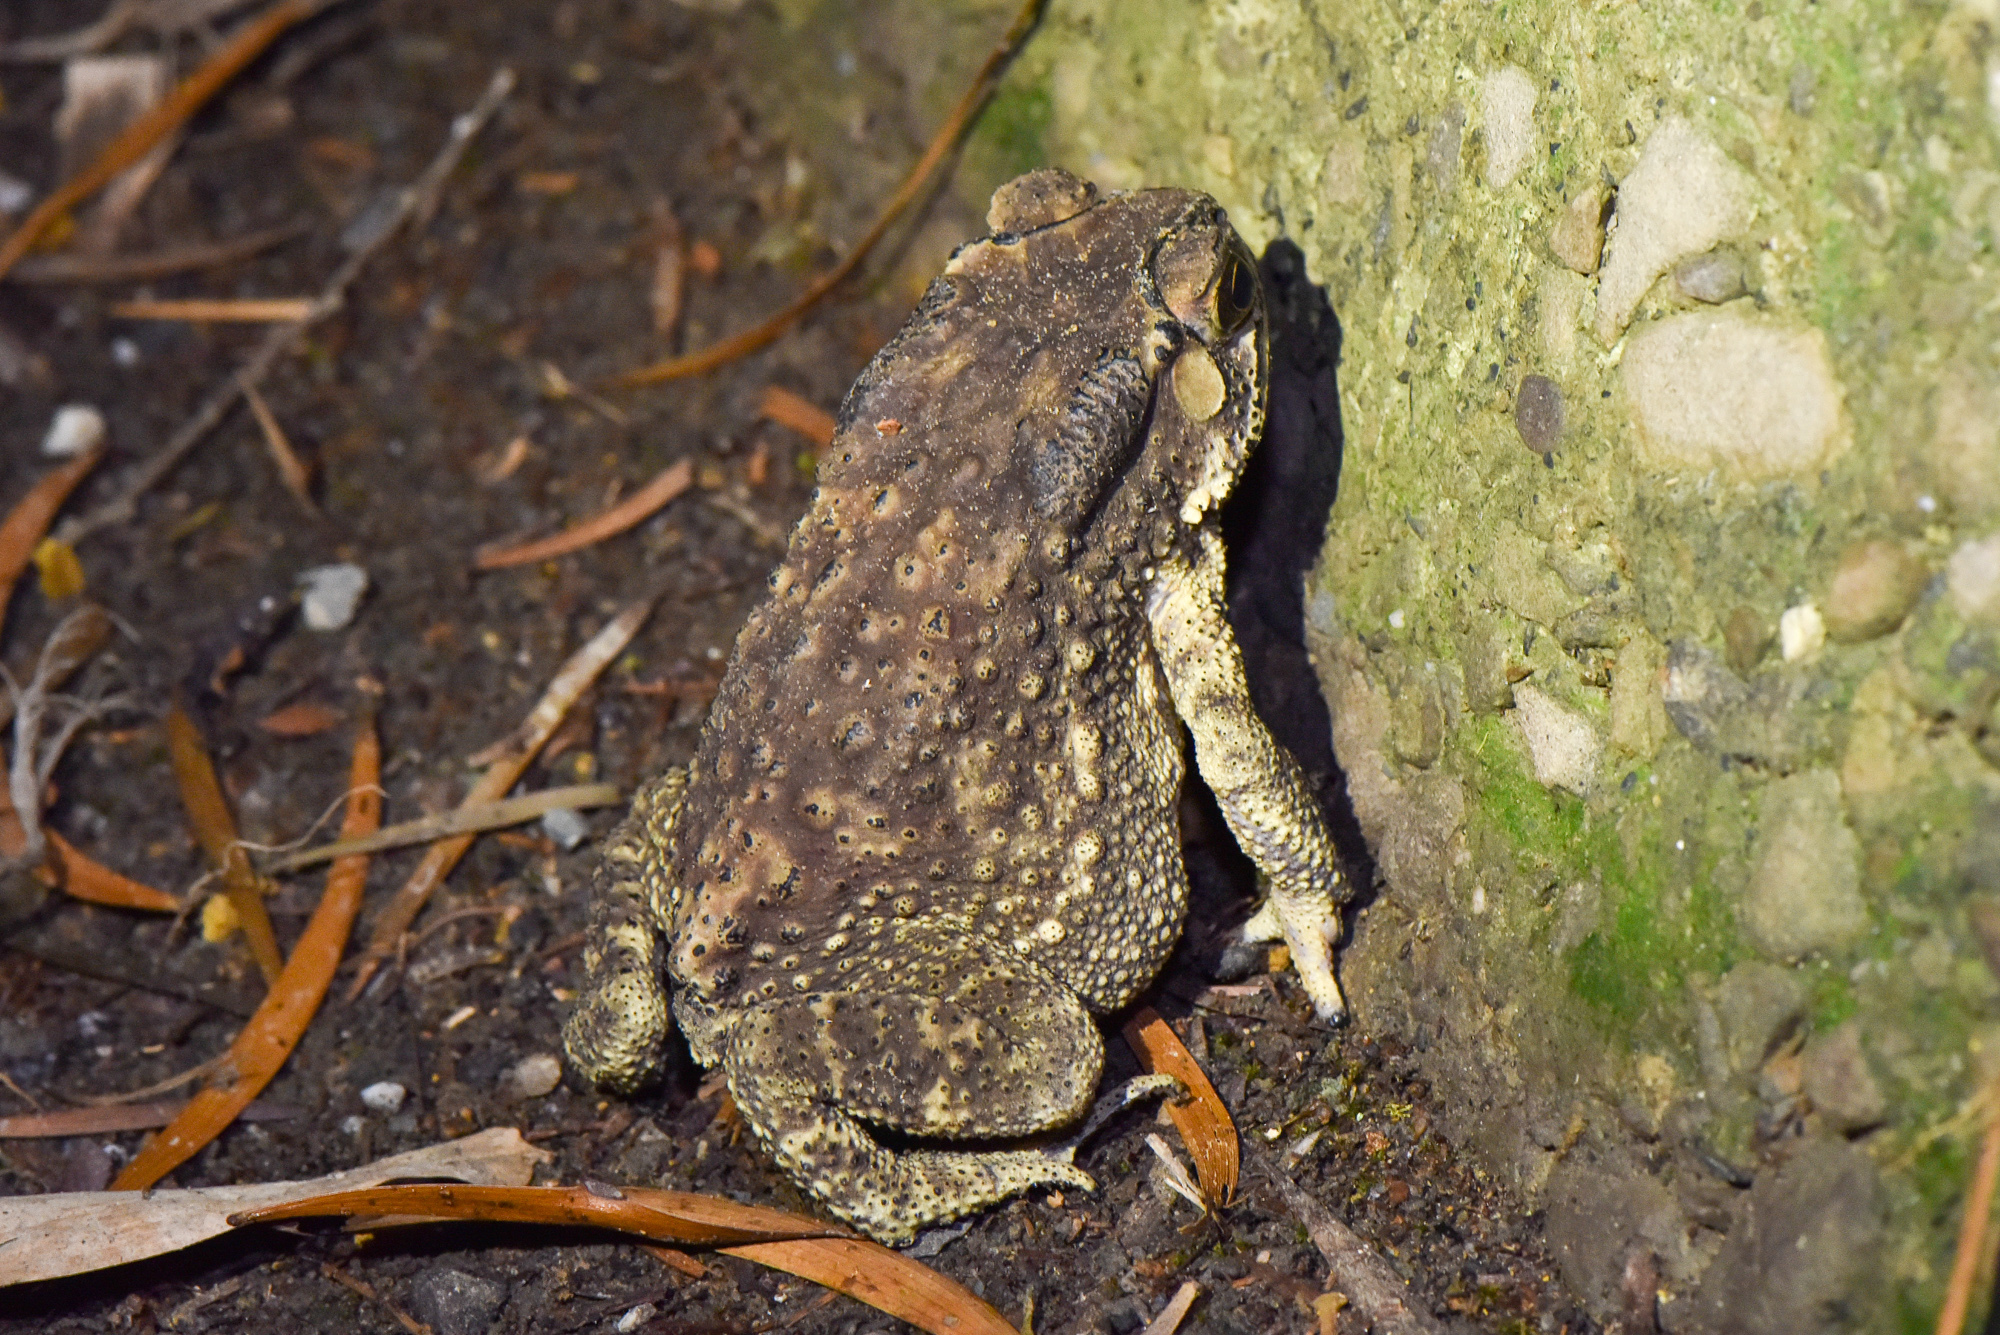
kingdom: Animalia
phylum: Chordata
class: Amphibia
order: Anura
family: Bufonidae
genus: Duttaphrynus
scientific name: Duttaphrynus melanostictus
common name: Common sunda toad
